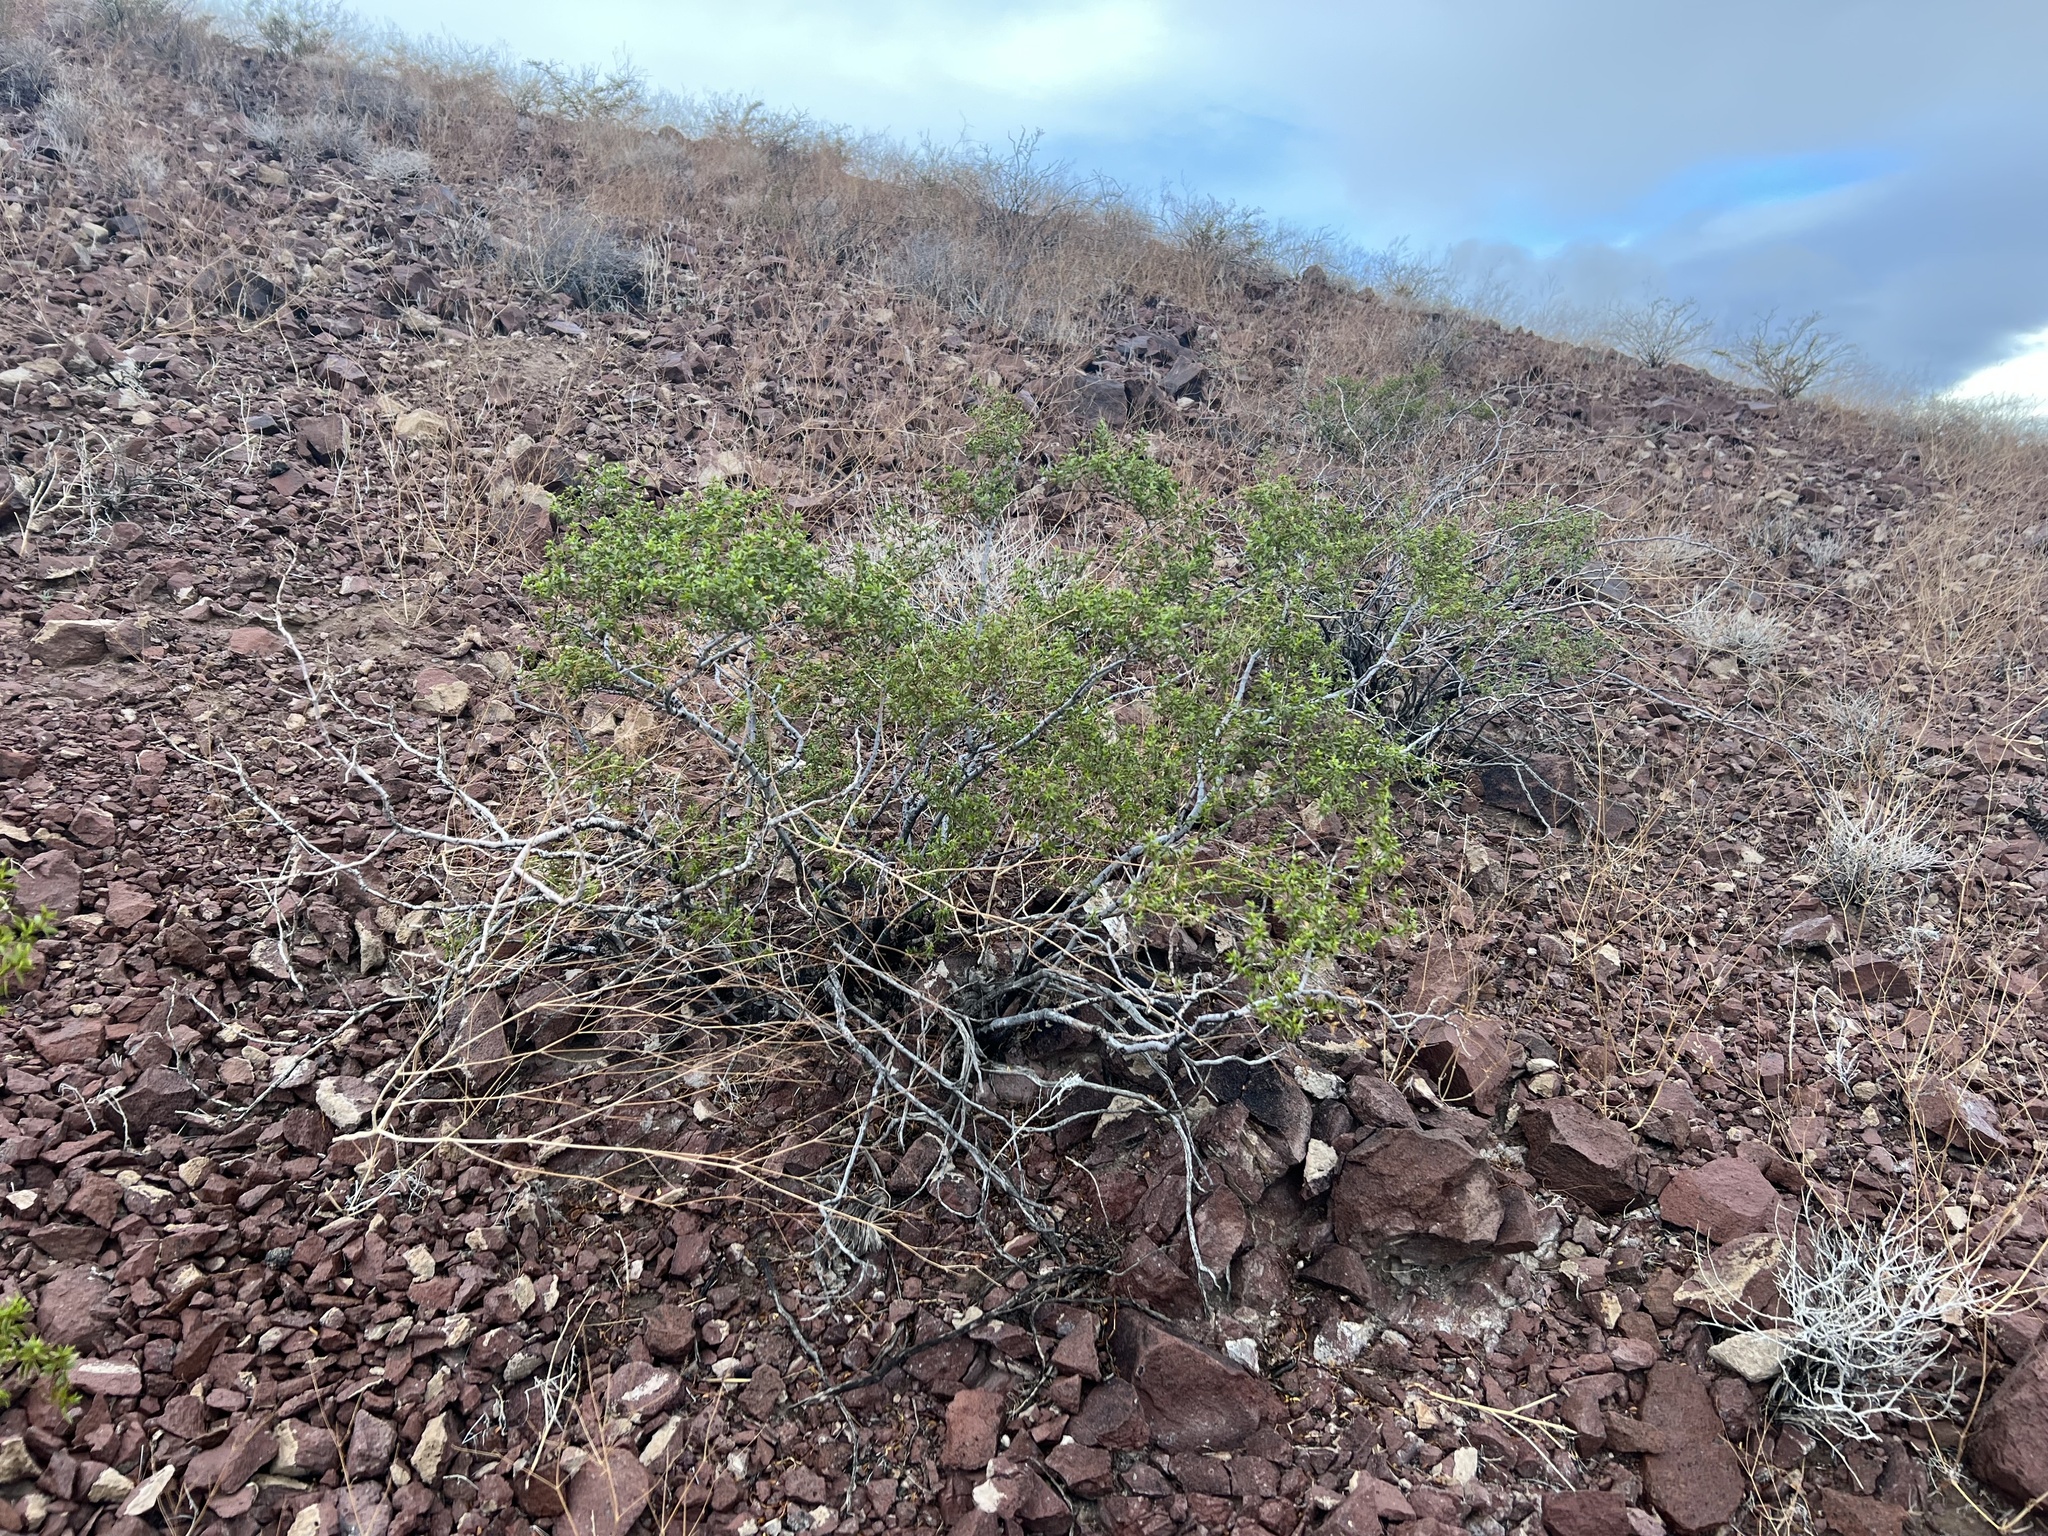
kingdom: Plantae
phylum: Tracheophyta
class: Magnoliopsida
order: Zygophyllales
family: Zygophyllaceae
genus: Larrea
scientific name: Larrea tridentata
